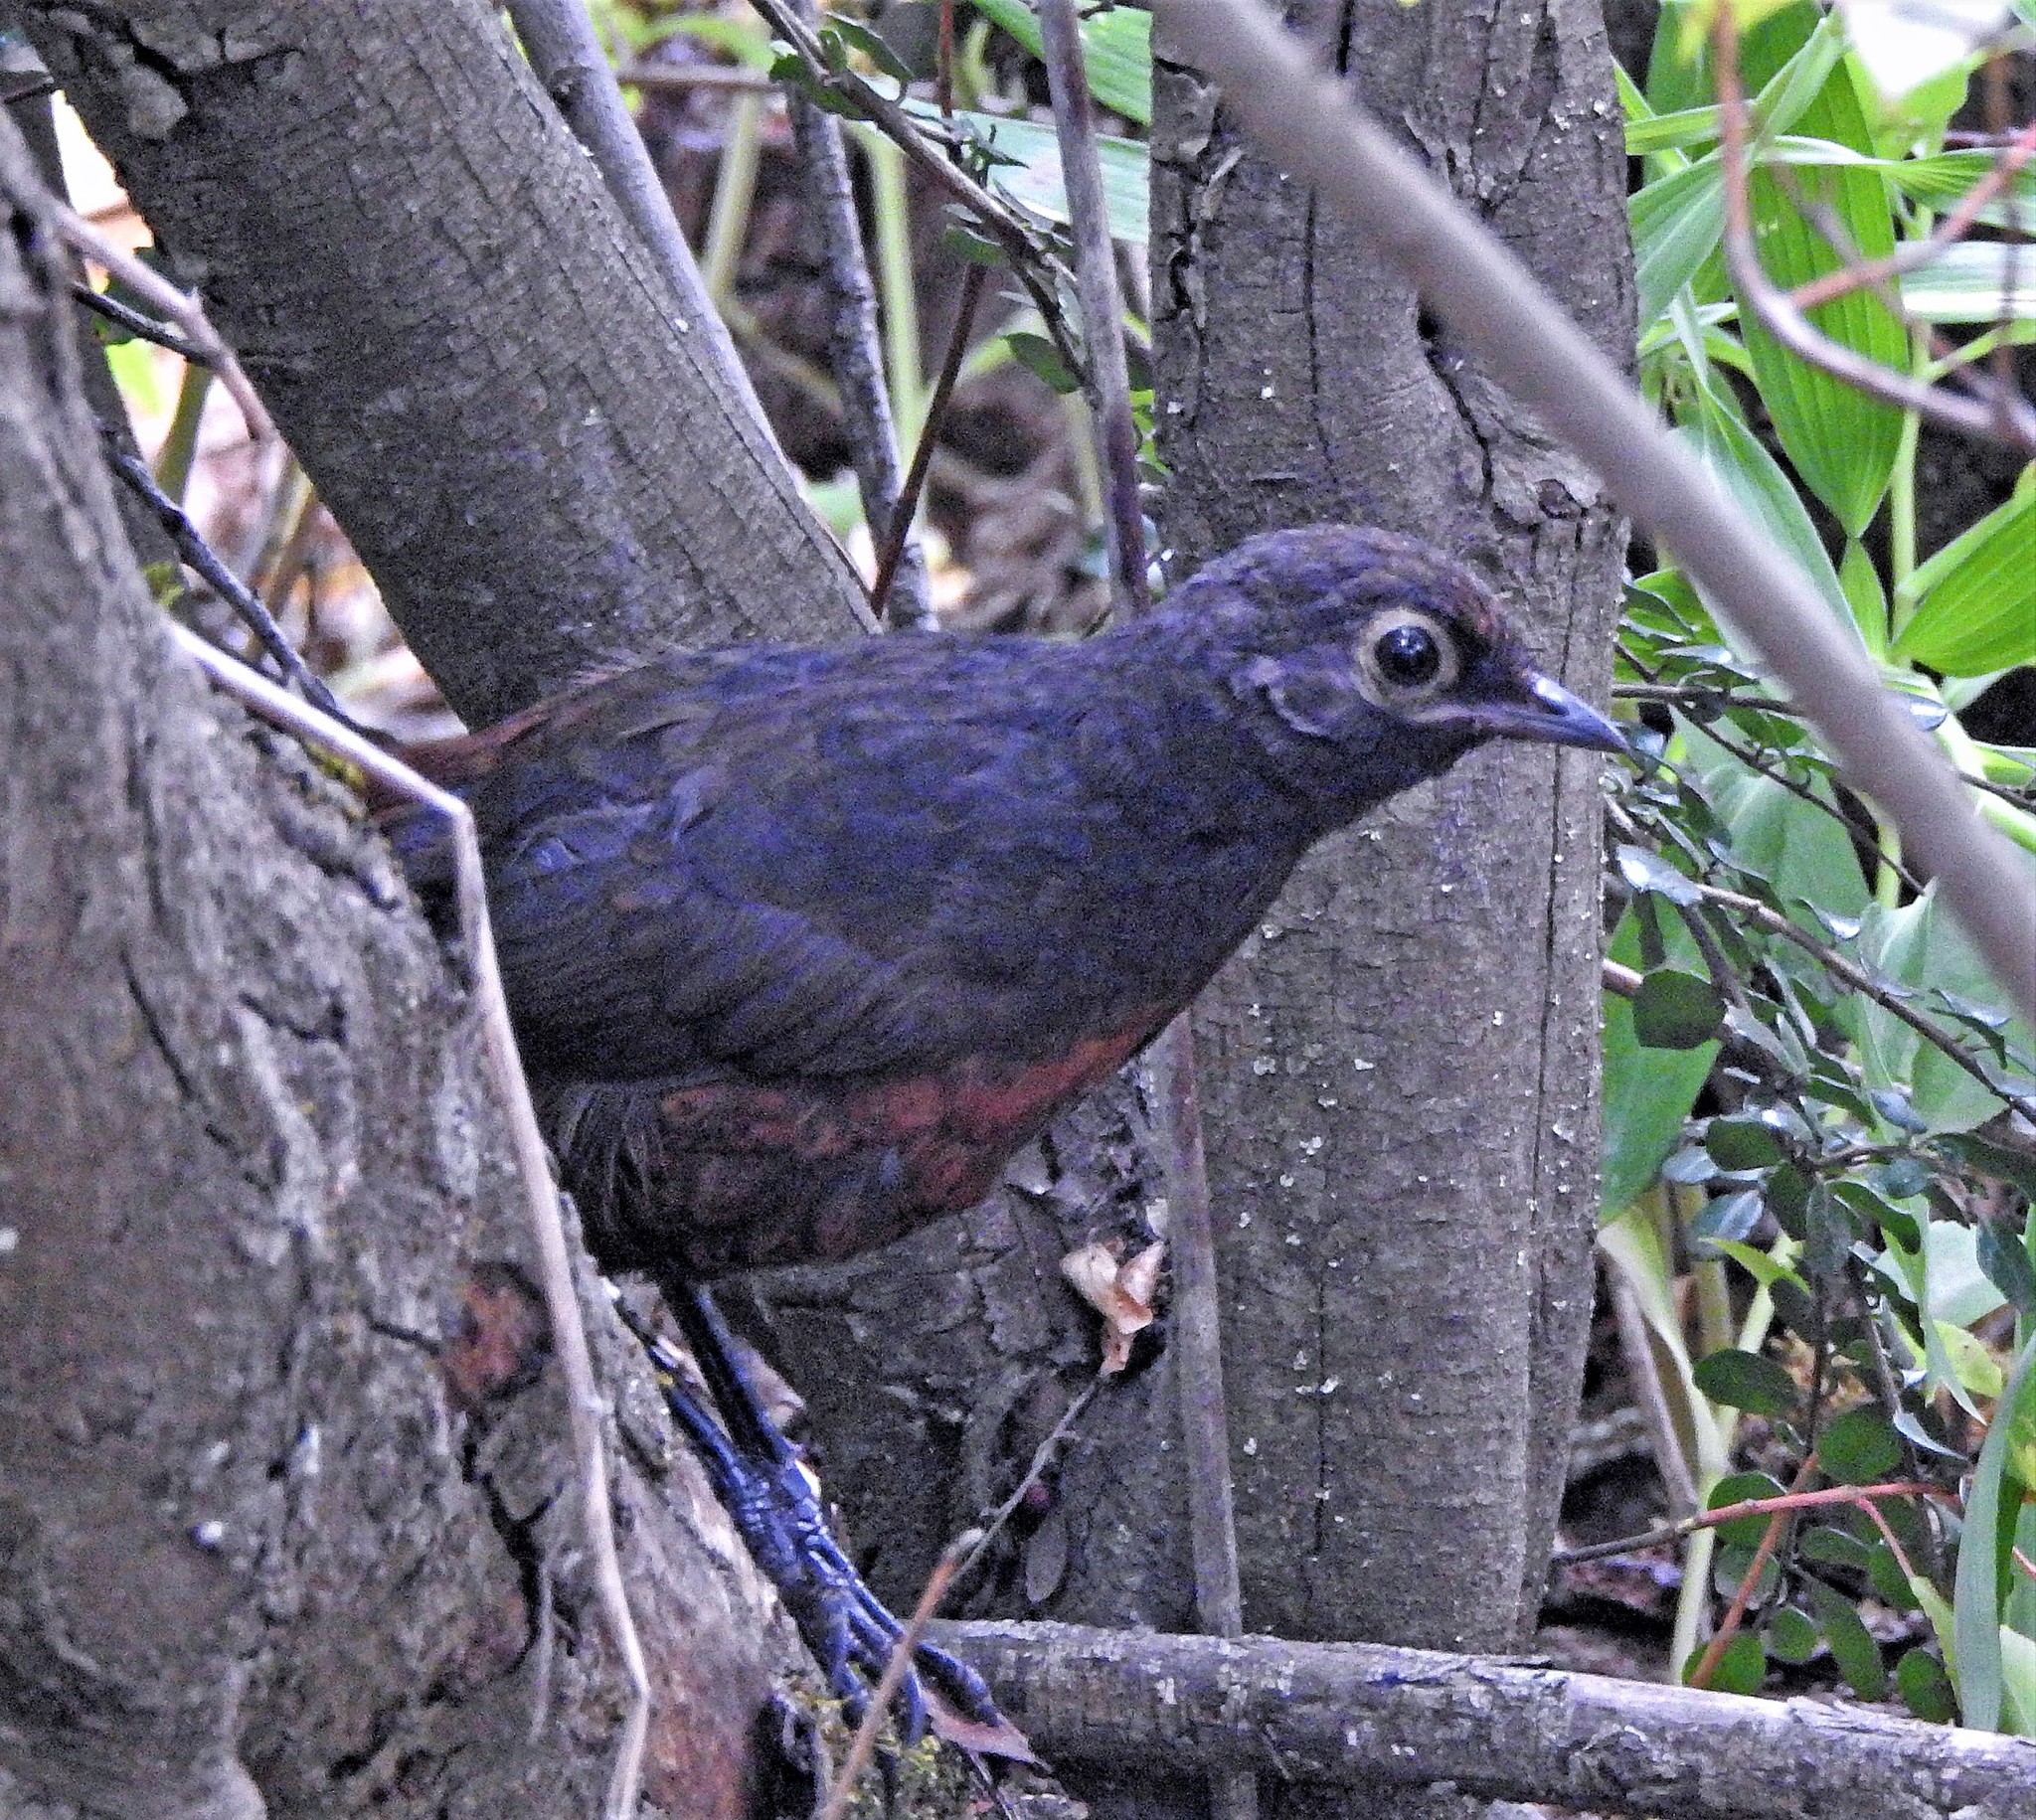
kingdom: Animalia
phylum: Chordata
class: Aves
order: Passeriformes
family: Rhinocryptidae
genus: Pteroptochos
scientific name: Pteroptochos tarnii
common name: Black-throated huet-huet
